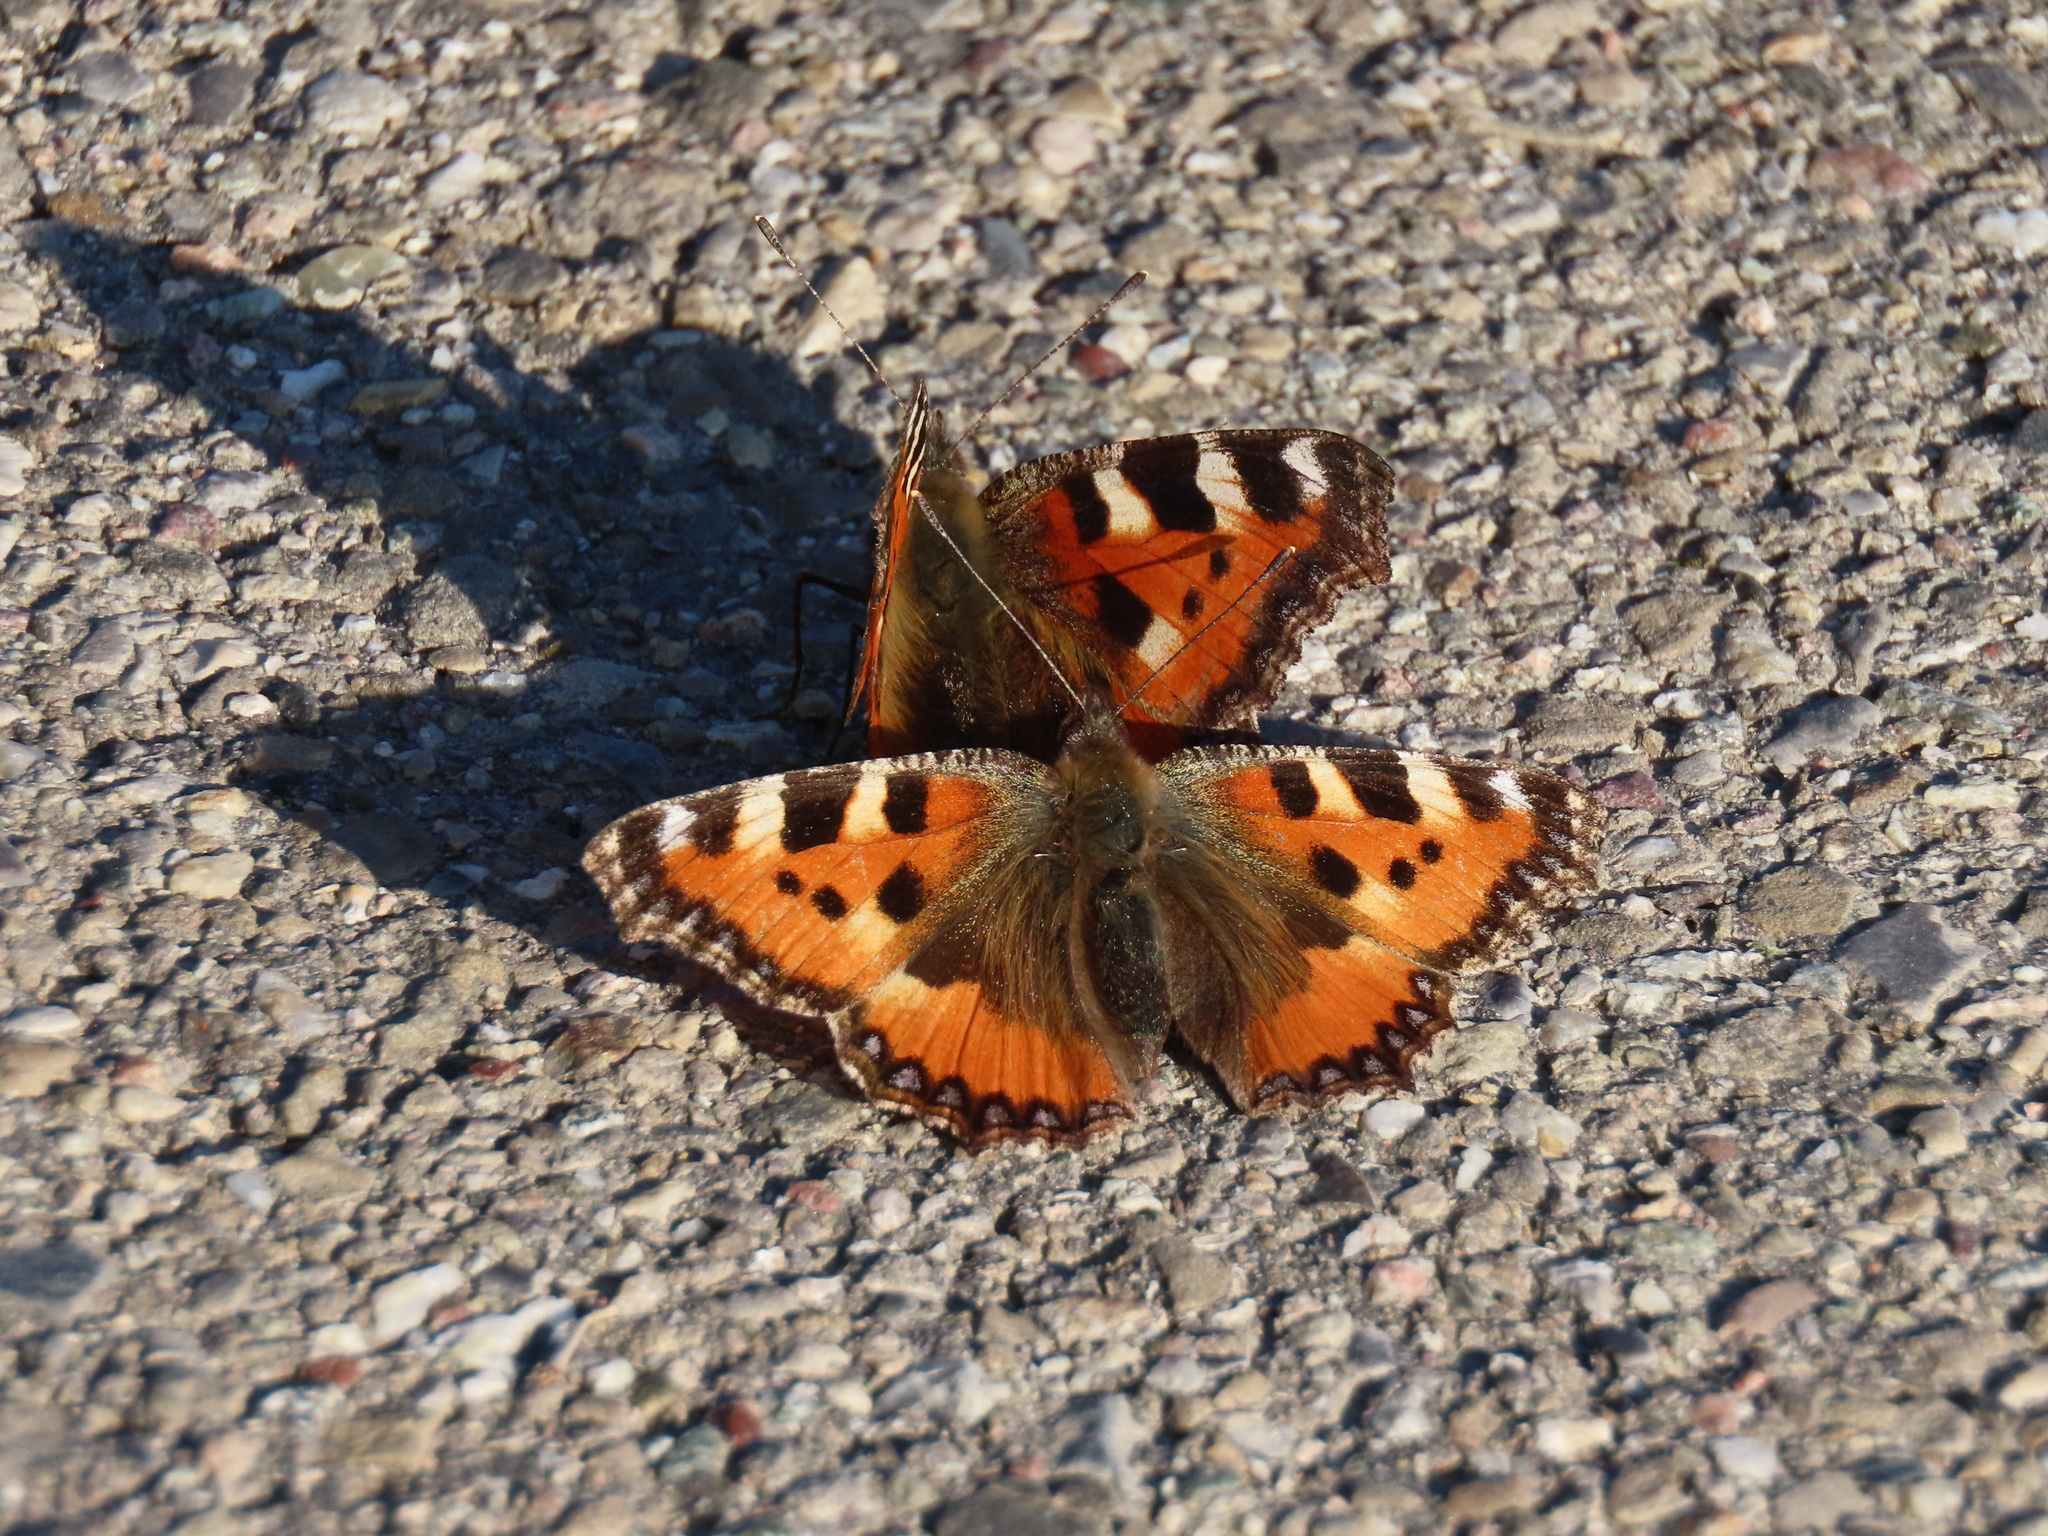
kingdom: Animalia
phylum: Arthropoda
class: Insecta
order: Lepidoptera
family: Nymphalidae
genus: Aglais
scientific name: Aglais urticae
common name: Small tortoiseshell
